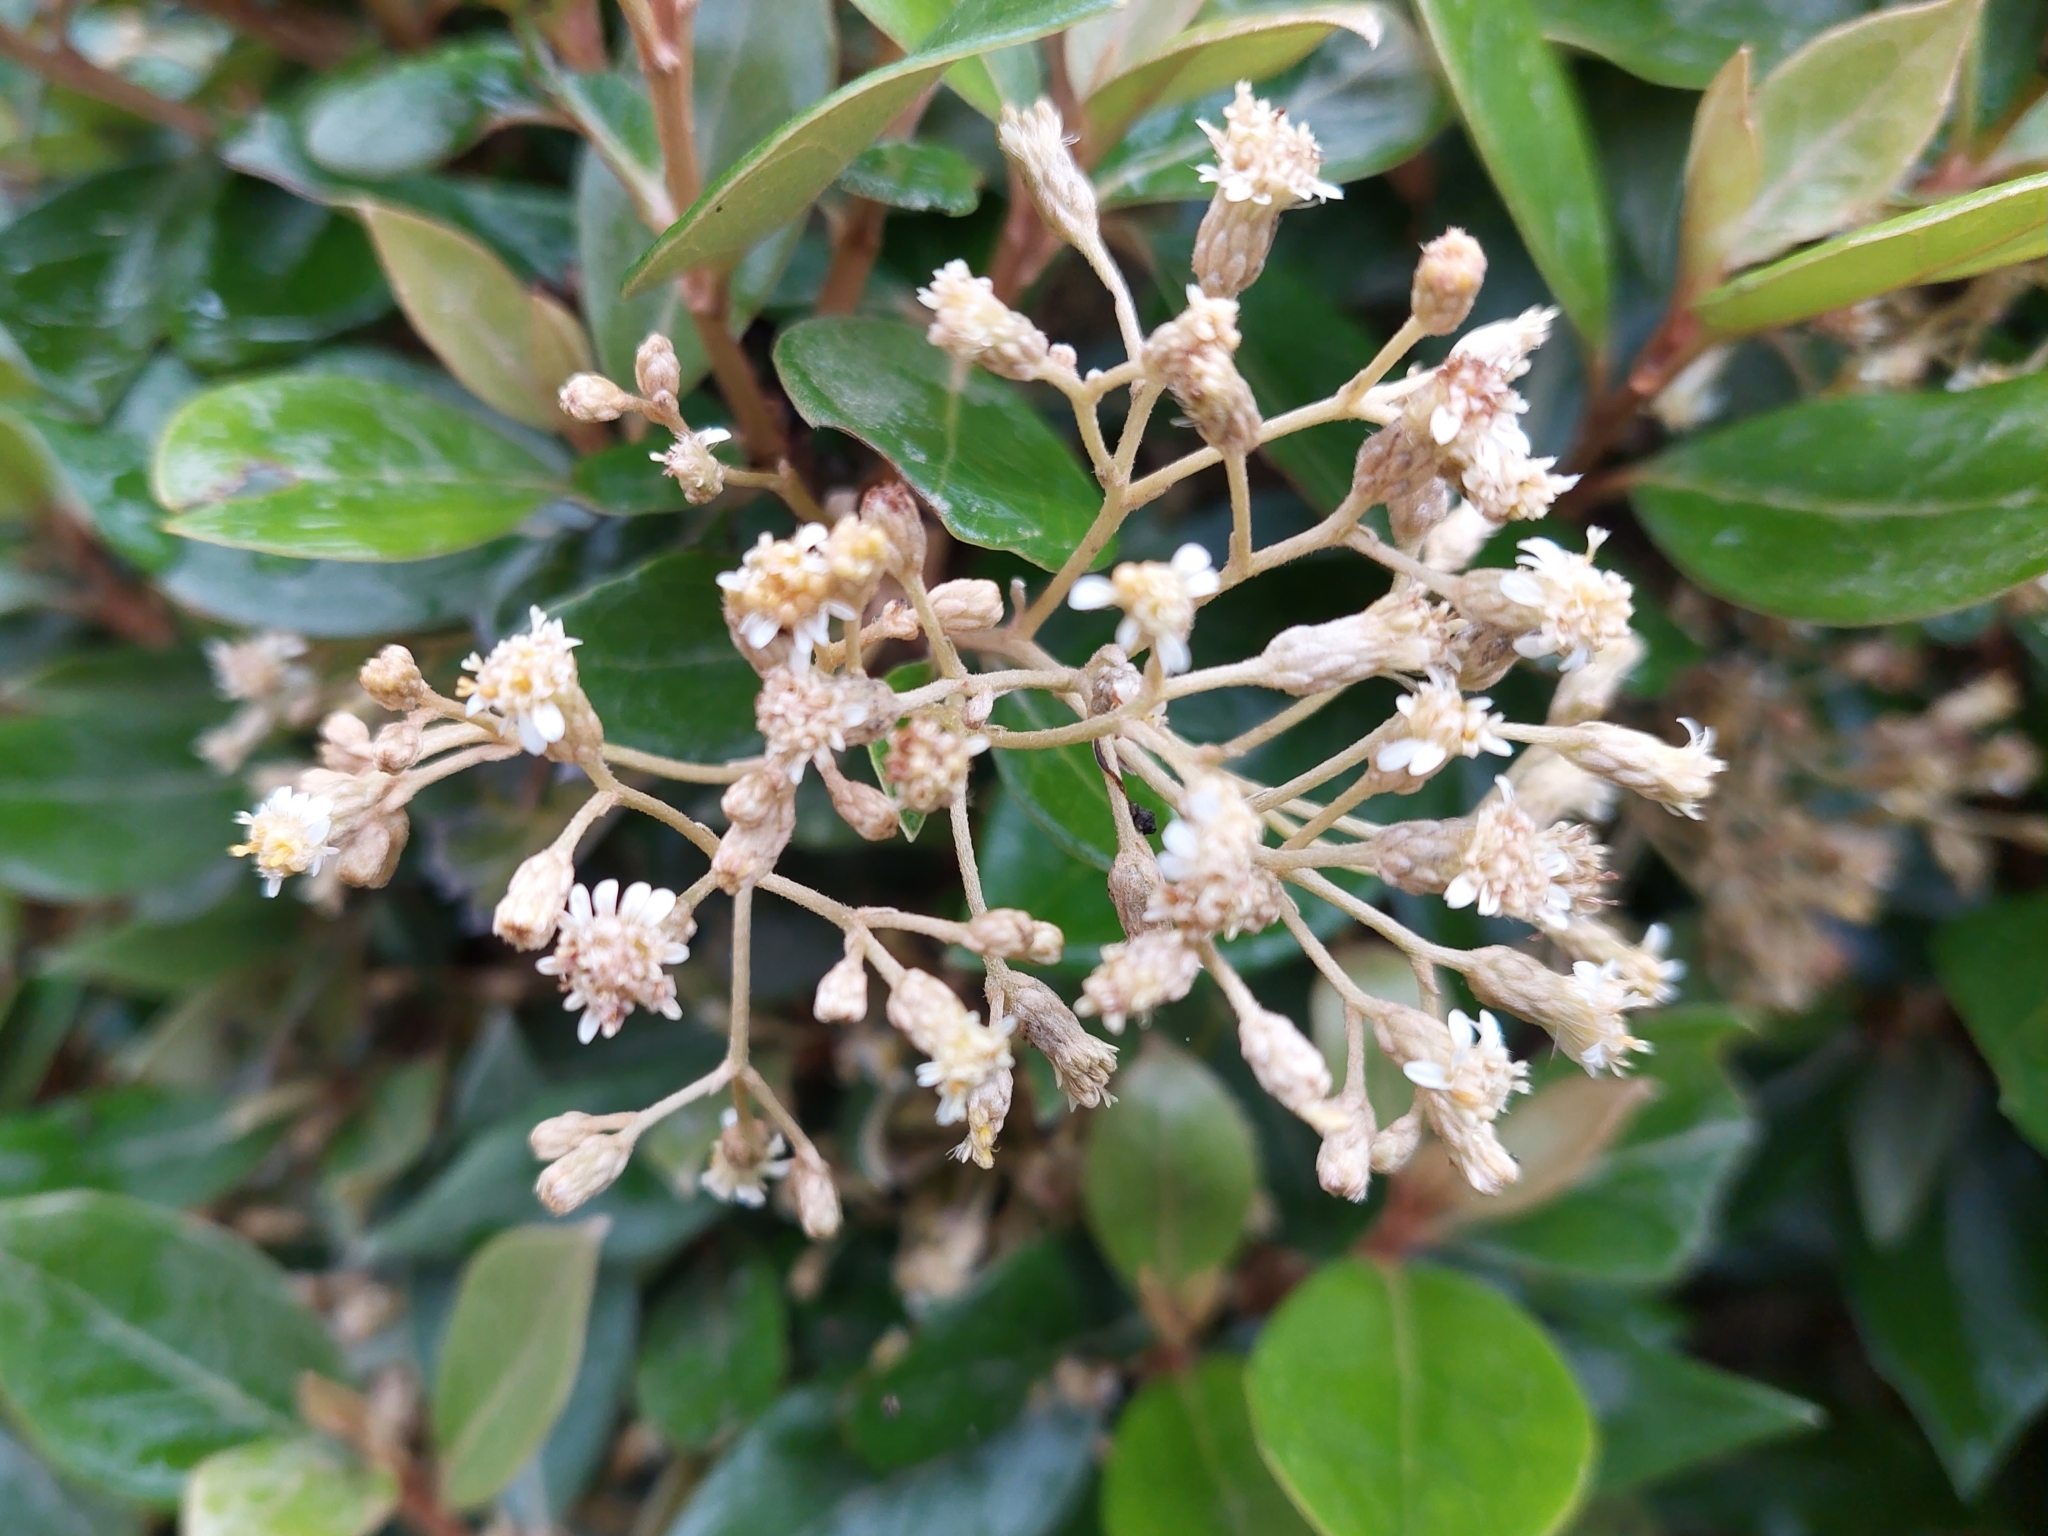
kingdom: Plantae
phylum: Tracheophyta
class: Magnoliopsida
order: Asterales
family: Asteraceae
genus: Olearia
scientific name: Olearia avicenniifolia
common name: Mangrove-leaf daisybush
